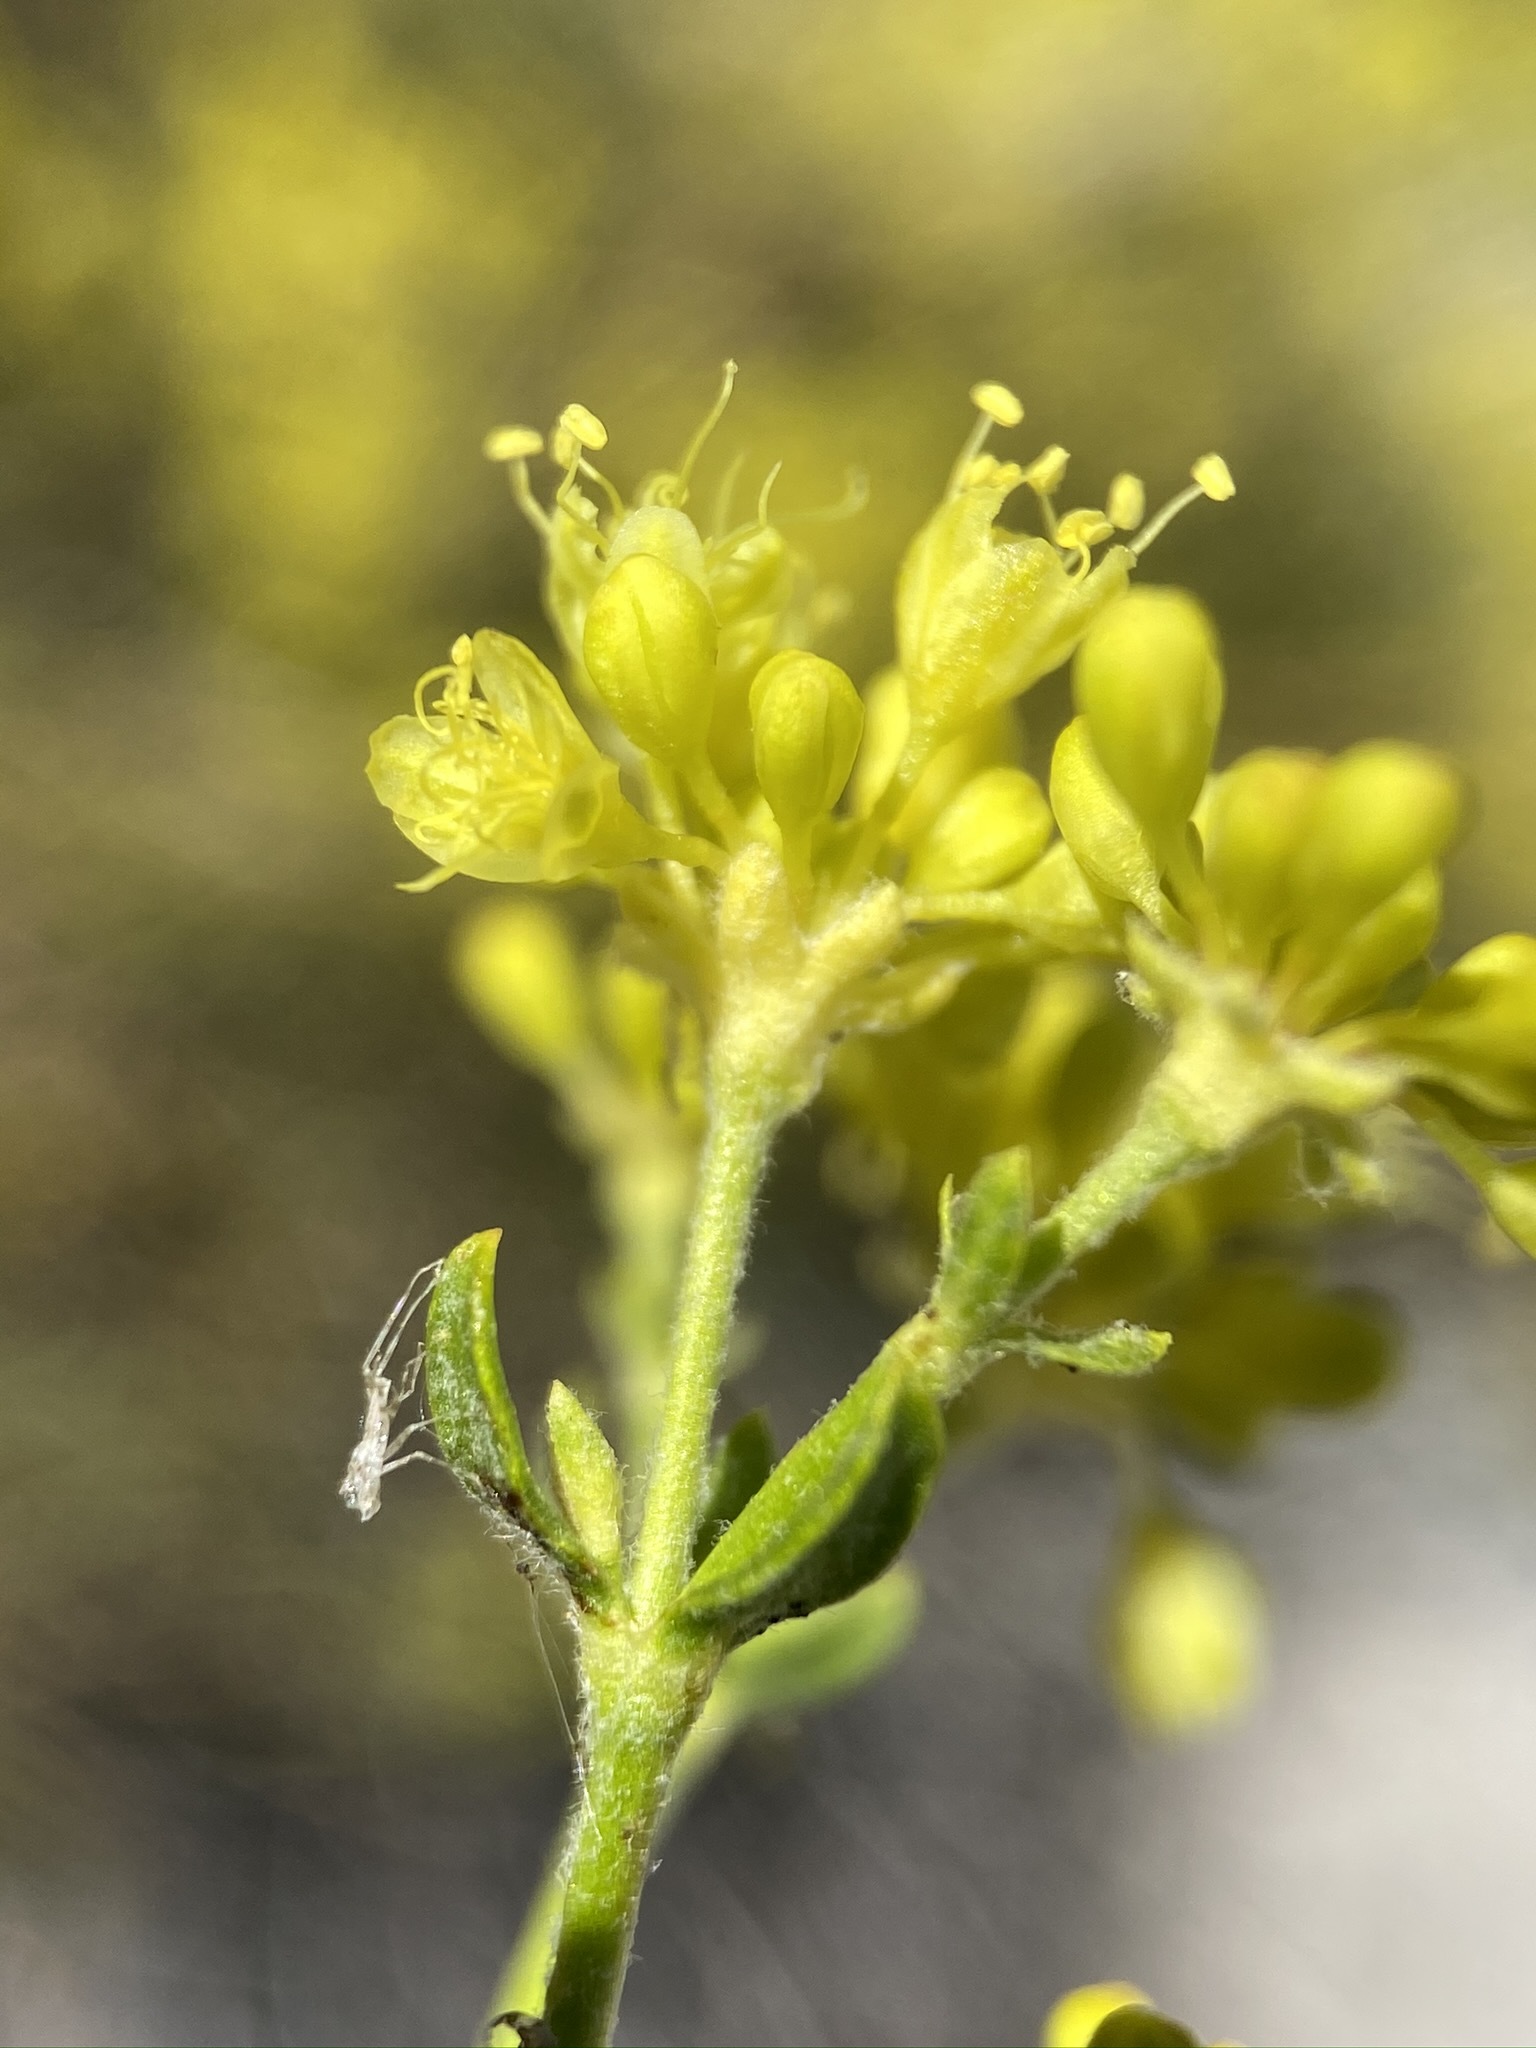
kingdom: Plantae
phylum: Tracheophyta
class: Magnoliopsida
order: Caryophyllales
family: Polygonaceae
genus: Eriogonum
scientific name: Eriogonum umbellatum
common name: Sulfur-buckwheat
